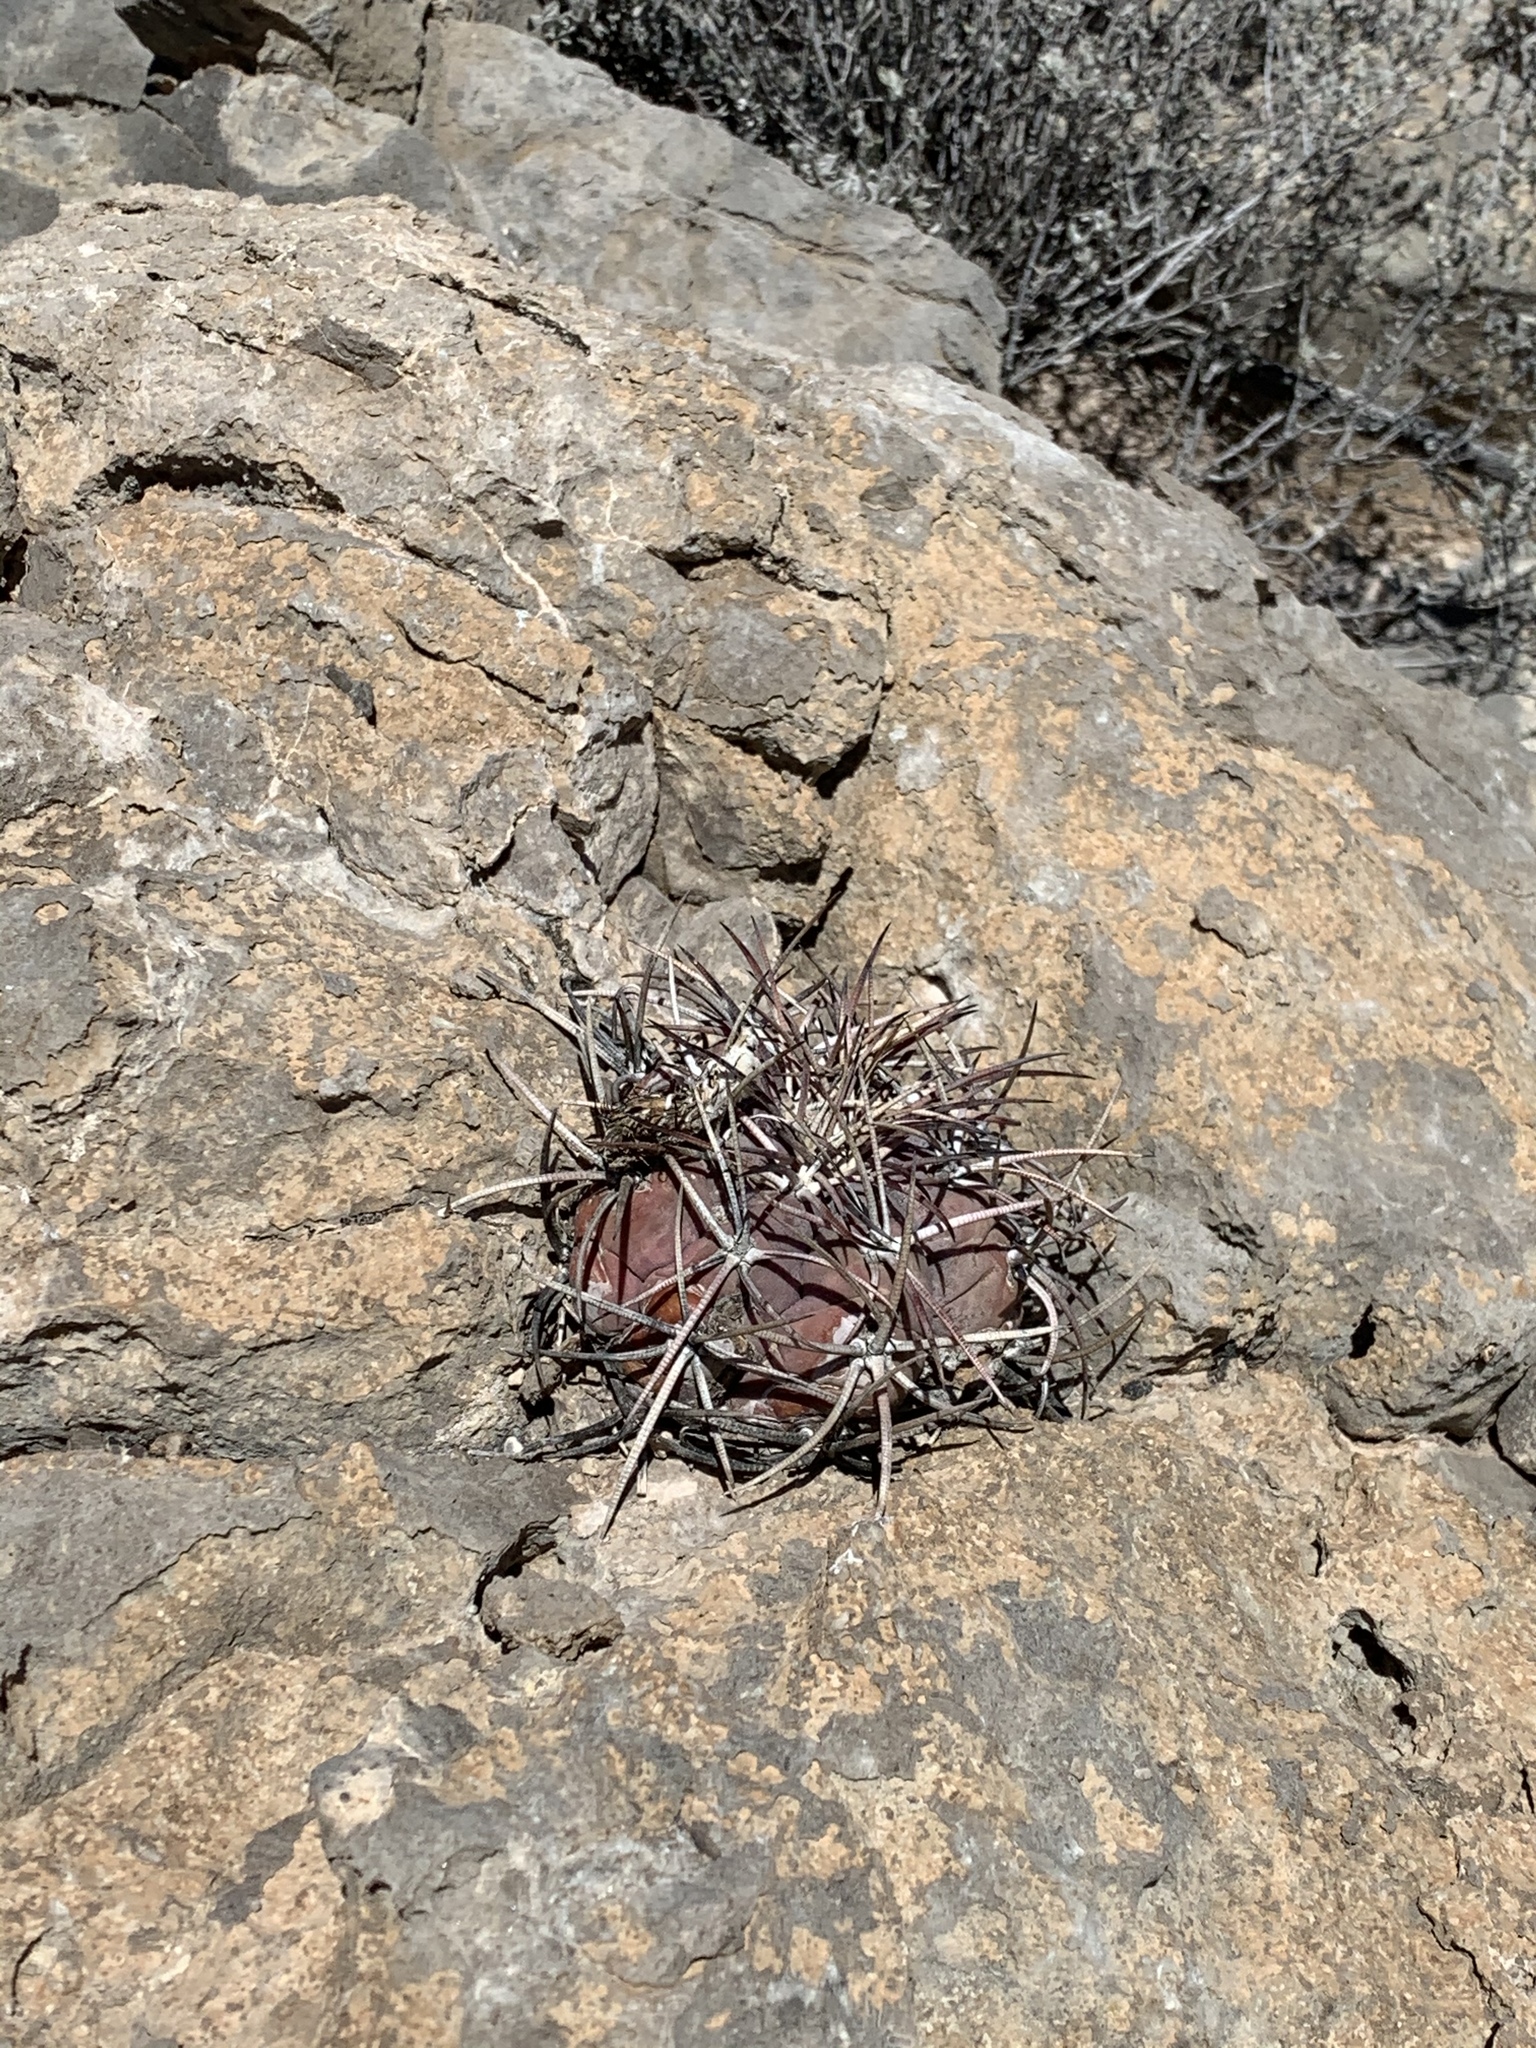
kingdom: Plantae
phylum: Tracheophyta
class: Magnoliopsida
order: Caryophyllales
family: Cactaceae
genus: Echinocactus
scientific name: Echinocactus horizonthalonius
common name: Devilshead
